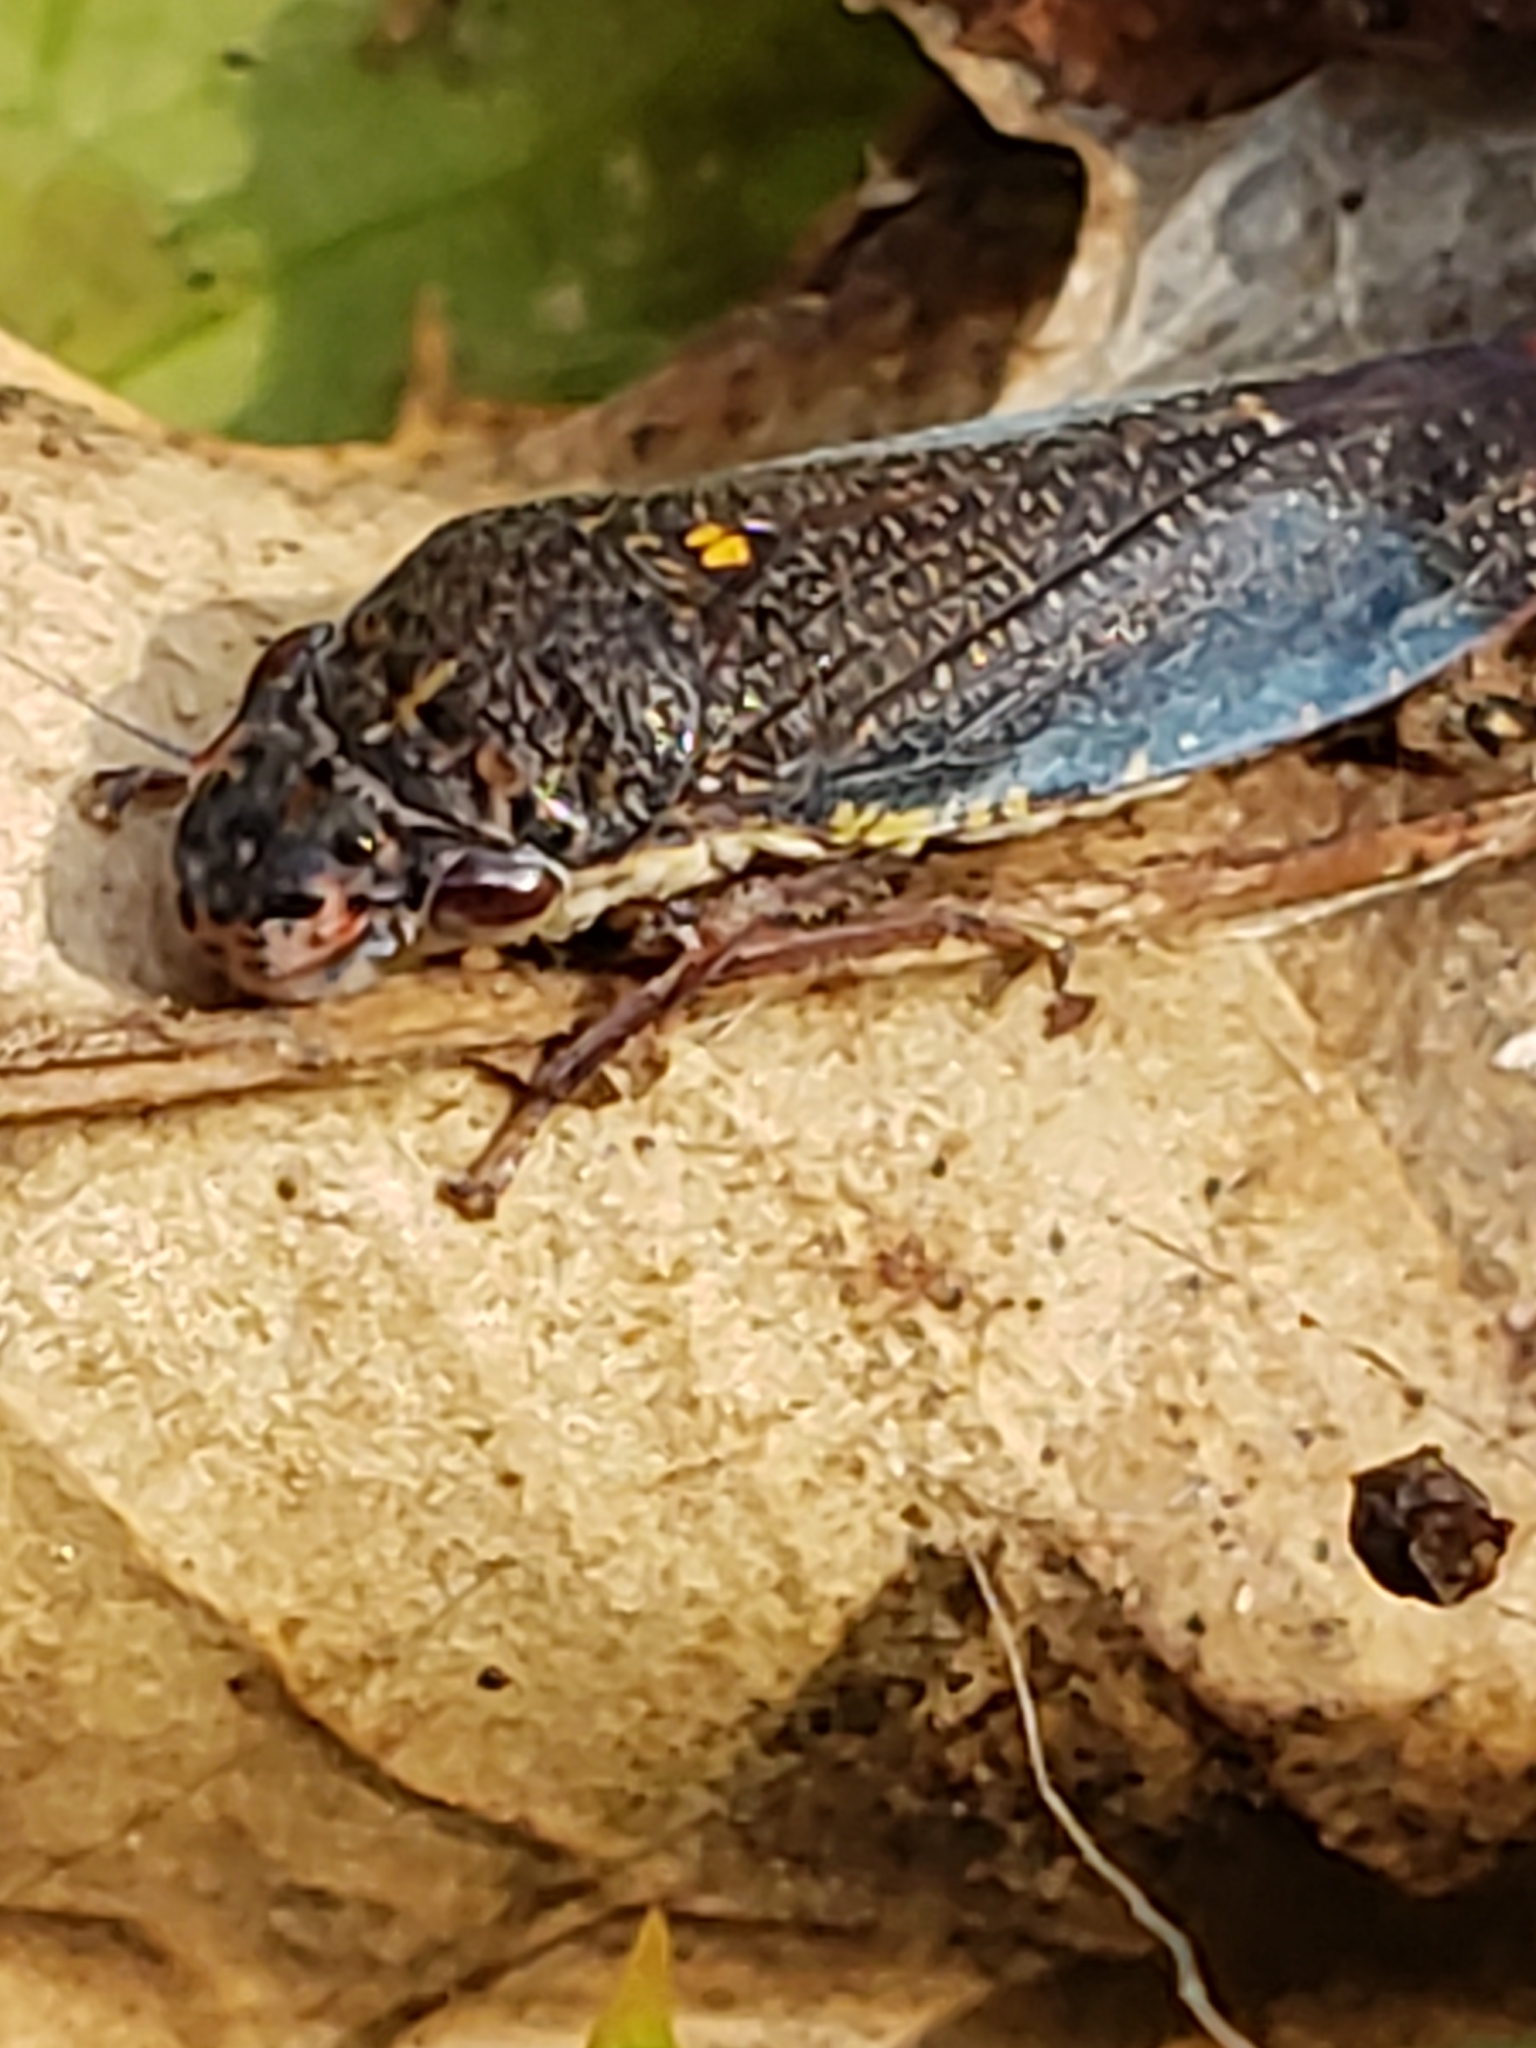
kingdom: Animalia
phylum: Arthropoda
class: Insecta
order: Hemiptera
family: Cicadellidae
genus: Paraulacizes
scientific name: Paraulacizes irrorata
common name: Speckled sharpshooter
